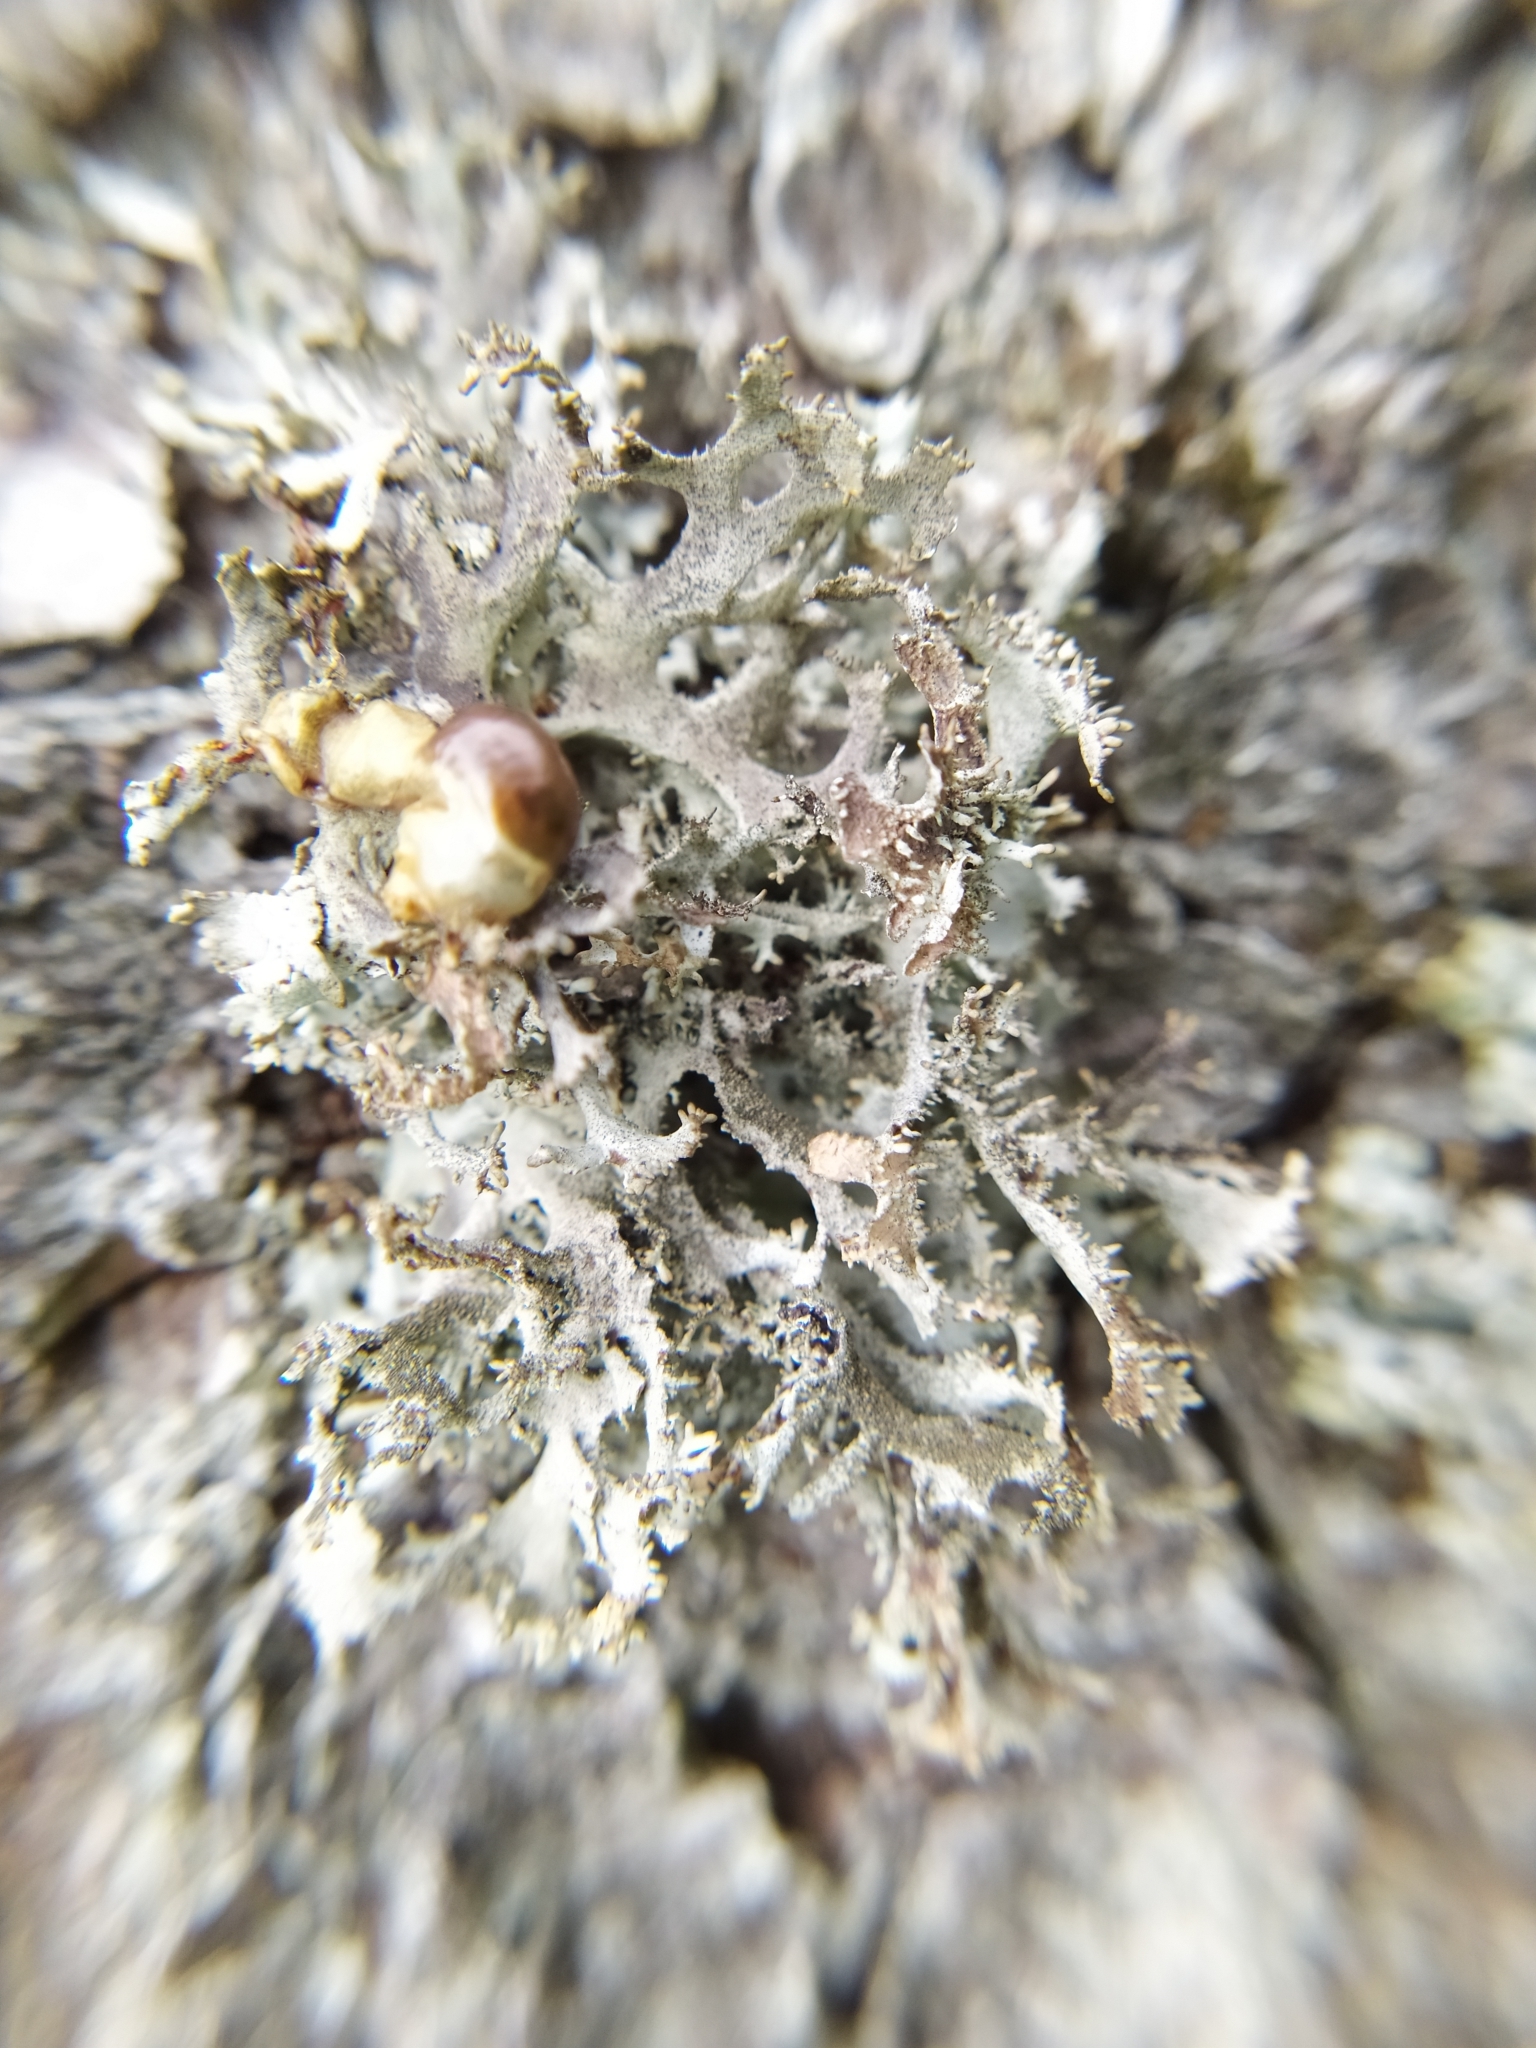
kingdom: Fungi
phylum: Ascomycota
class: Lecanoromycetes
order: Lecanorales
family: Parmeliaceae
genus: Pseudevernia
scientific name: Pseudevernia furfuracea
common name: Tree moss
